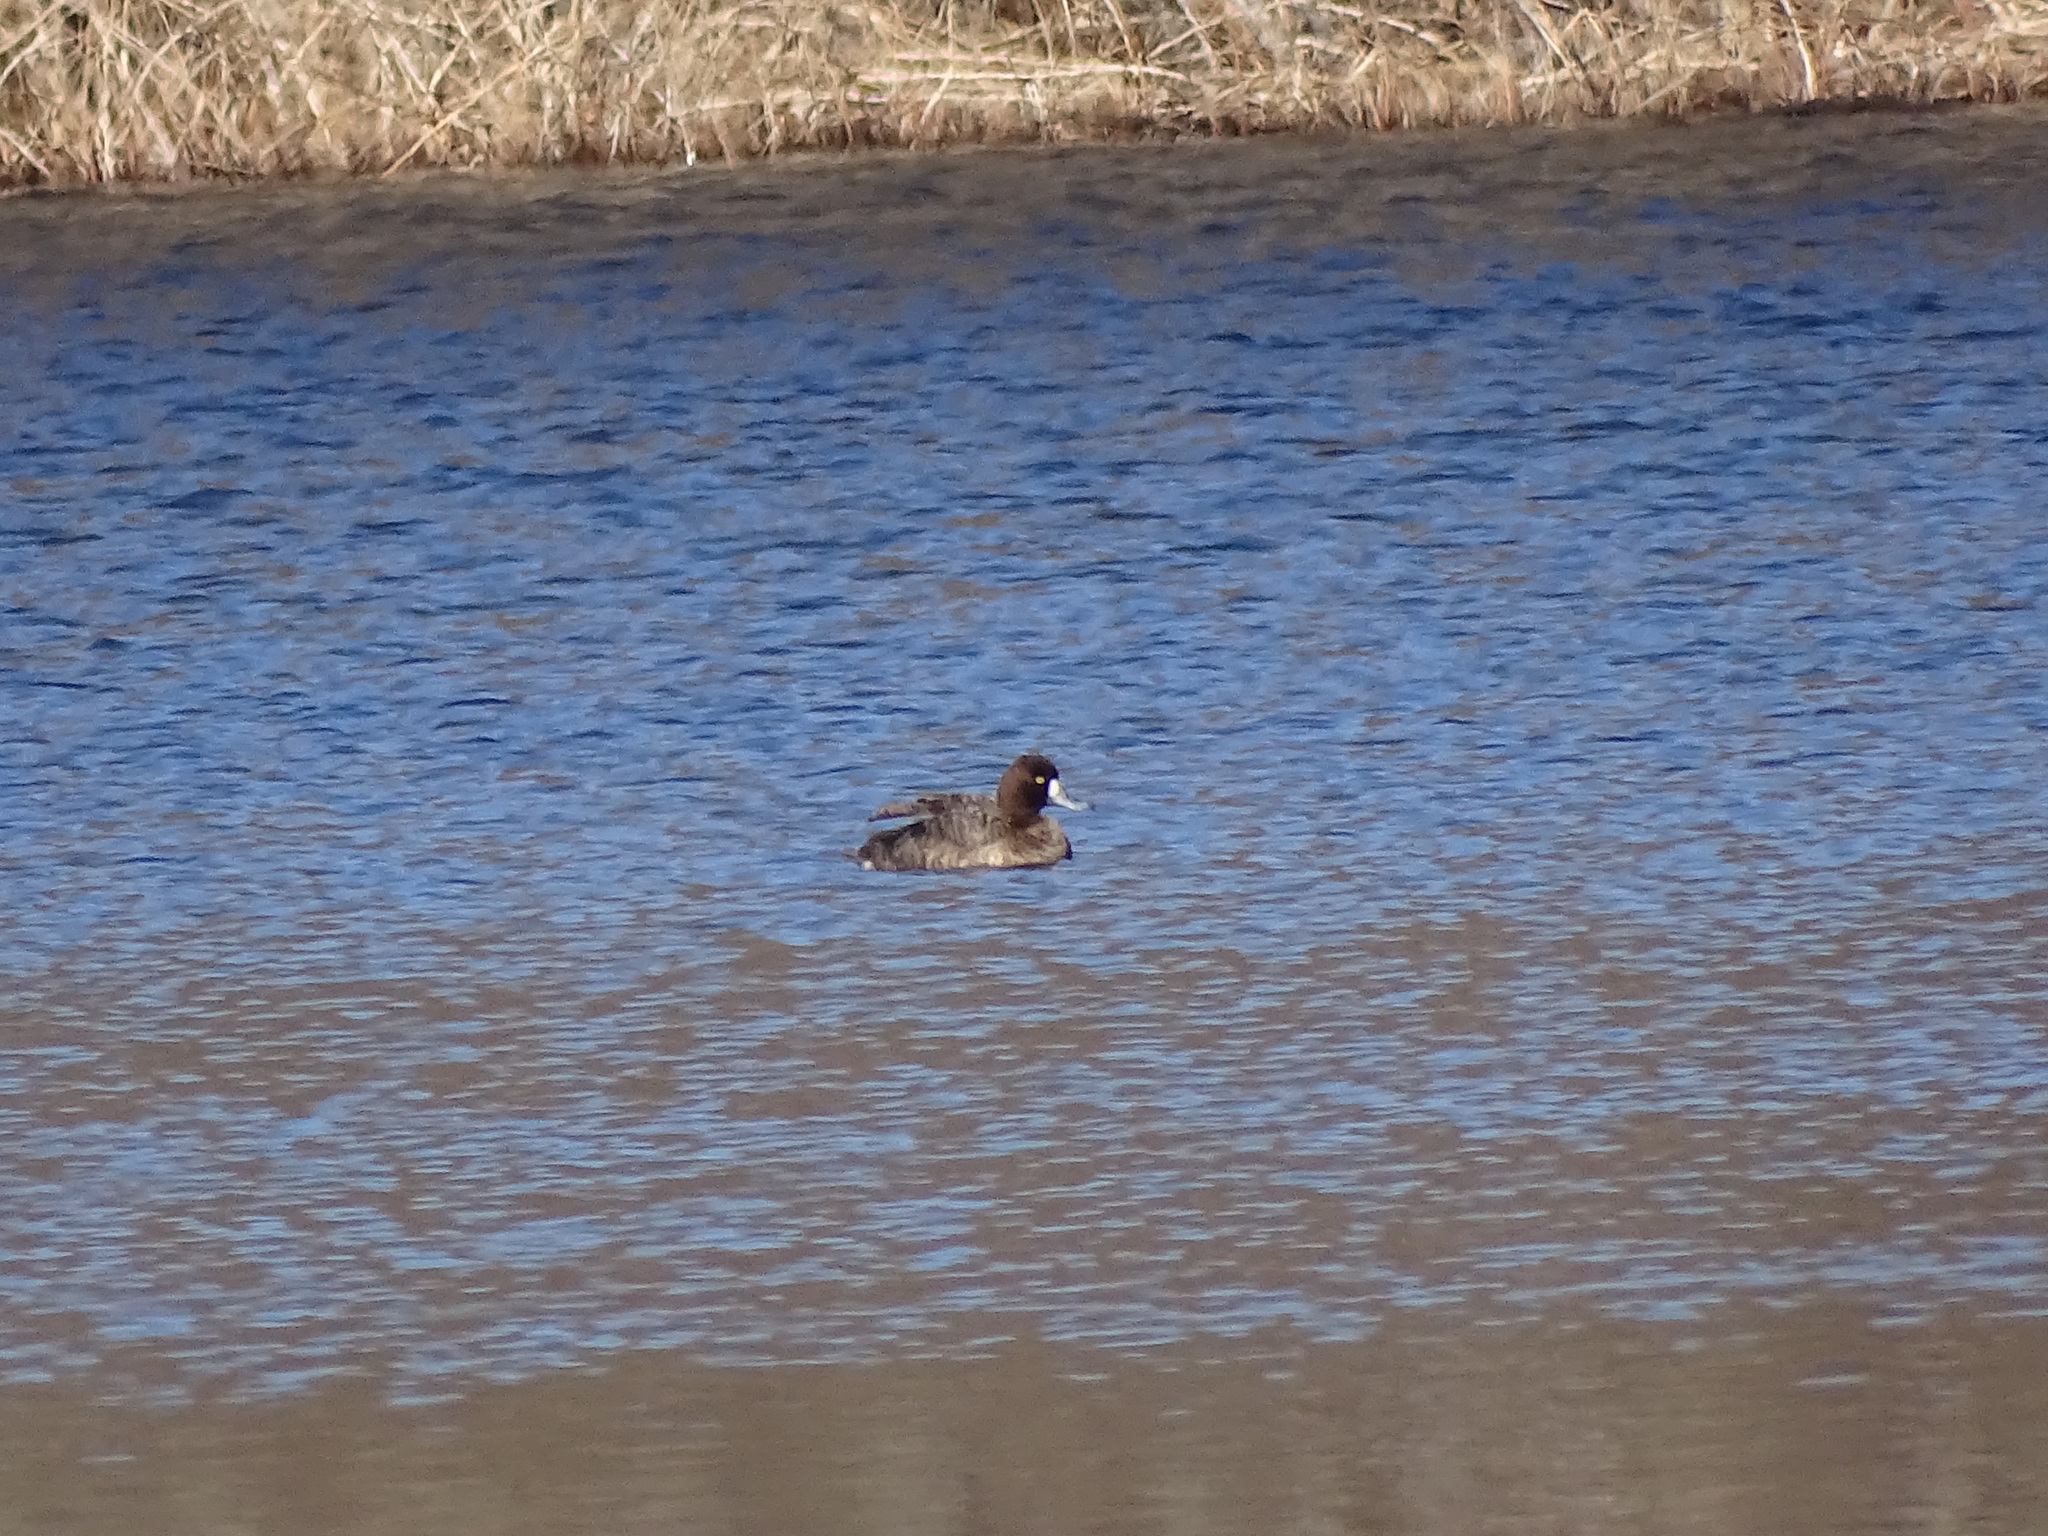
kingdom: Animalia
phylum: Chordata
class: Aves
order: Anseriformes
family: Anatidae
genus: Aythya
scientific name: Aythya affinis
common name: Lesser scaup
